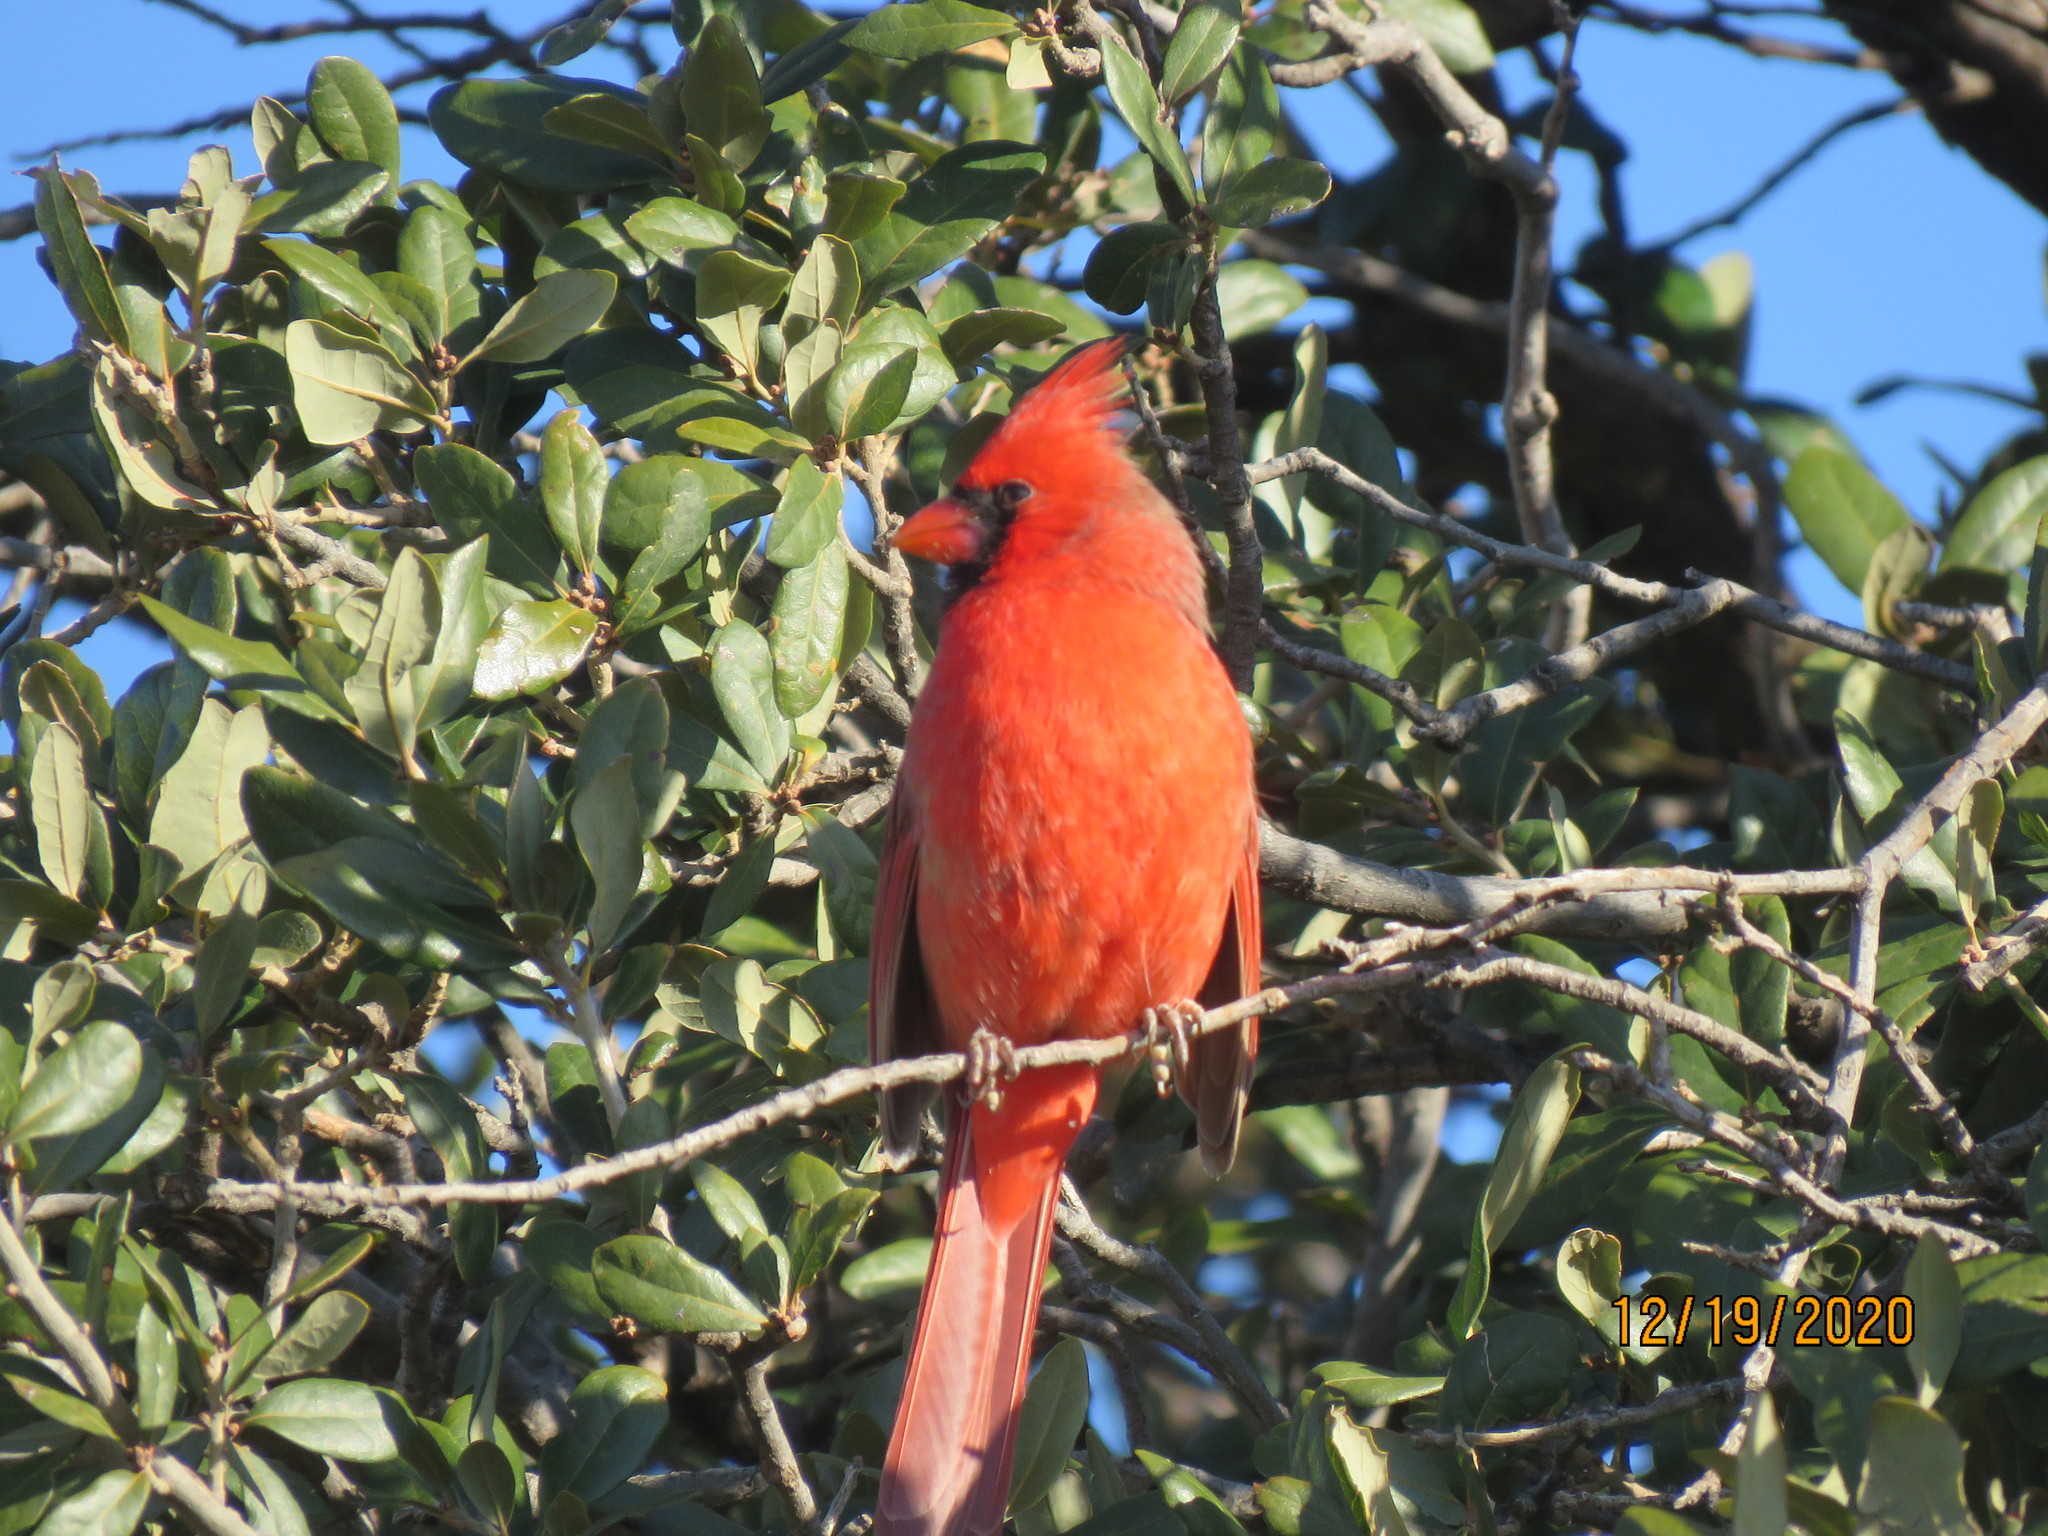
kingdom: Animalia
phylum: Chordata
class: Aves
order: Passeriformes
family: Cardinalidae
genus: Cardinalis
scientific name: Cardinalis cardinalis
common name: Northern cardinal
